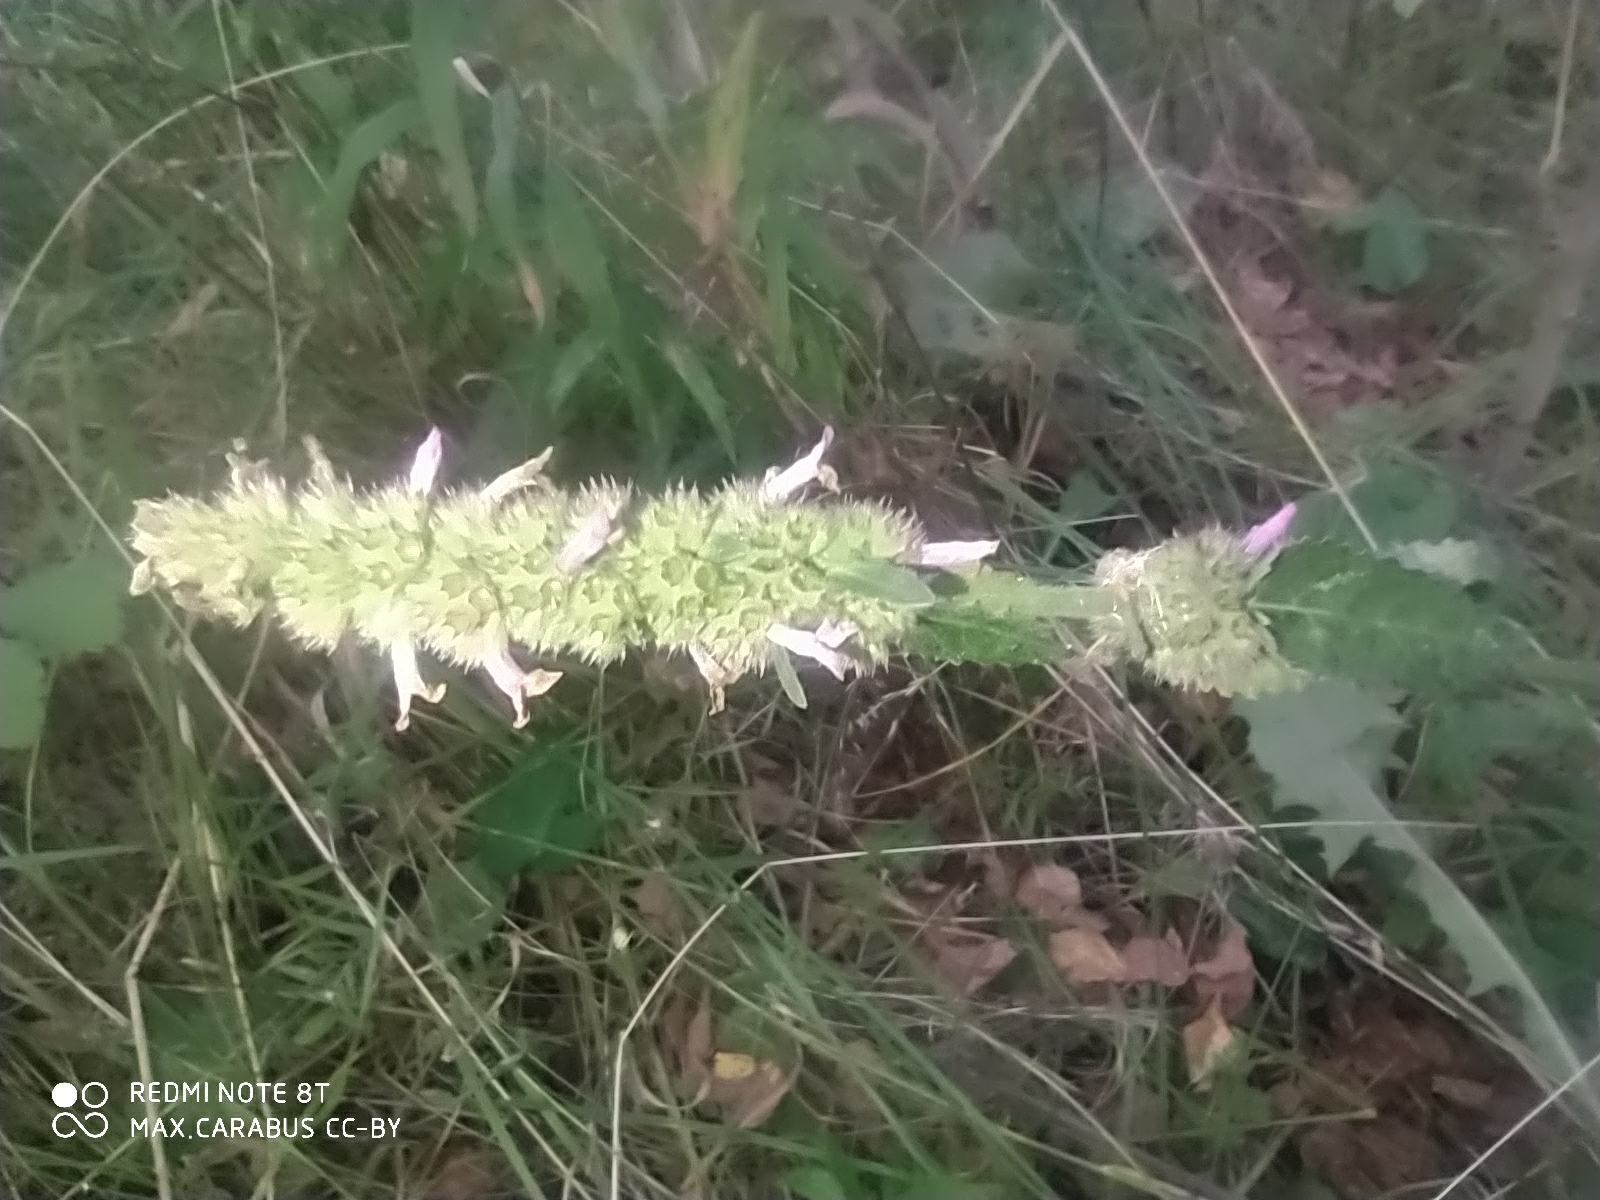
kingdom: Plantae
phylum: Tracheophyta
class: Magnoliopsida
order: Lamiales
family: Lamiaceae
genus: Betonica
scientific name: Betonica officinalis
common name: Bishop's-wort
